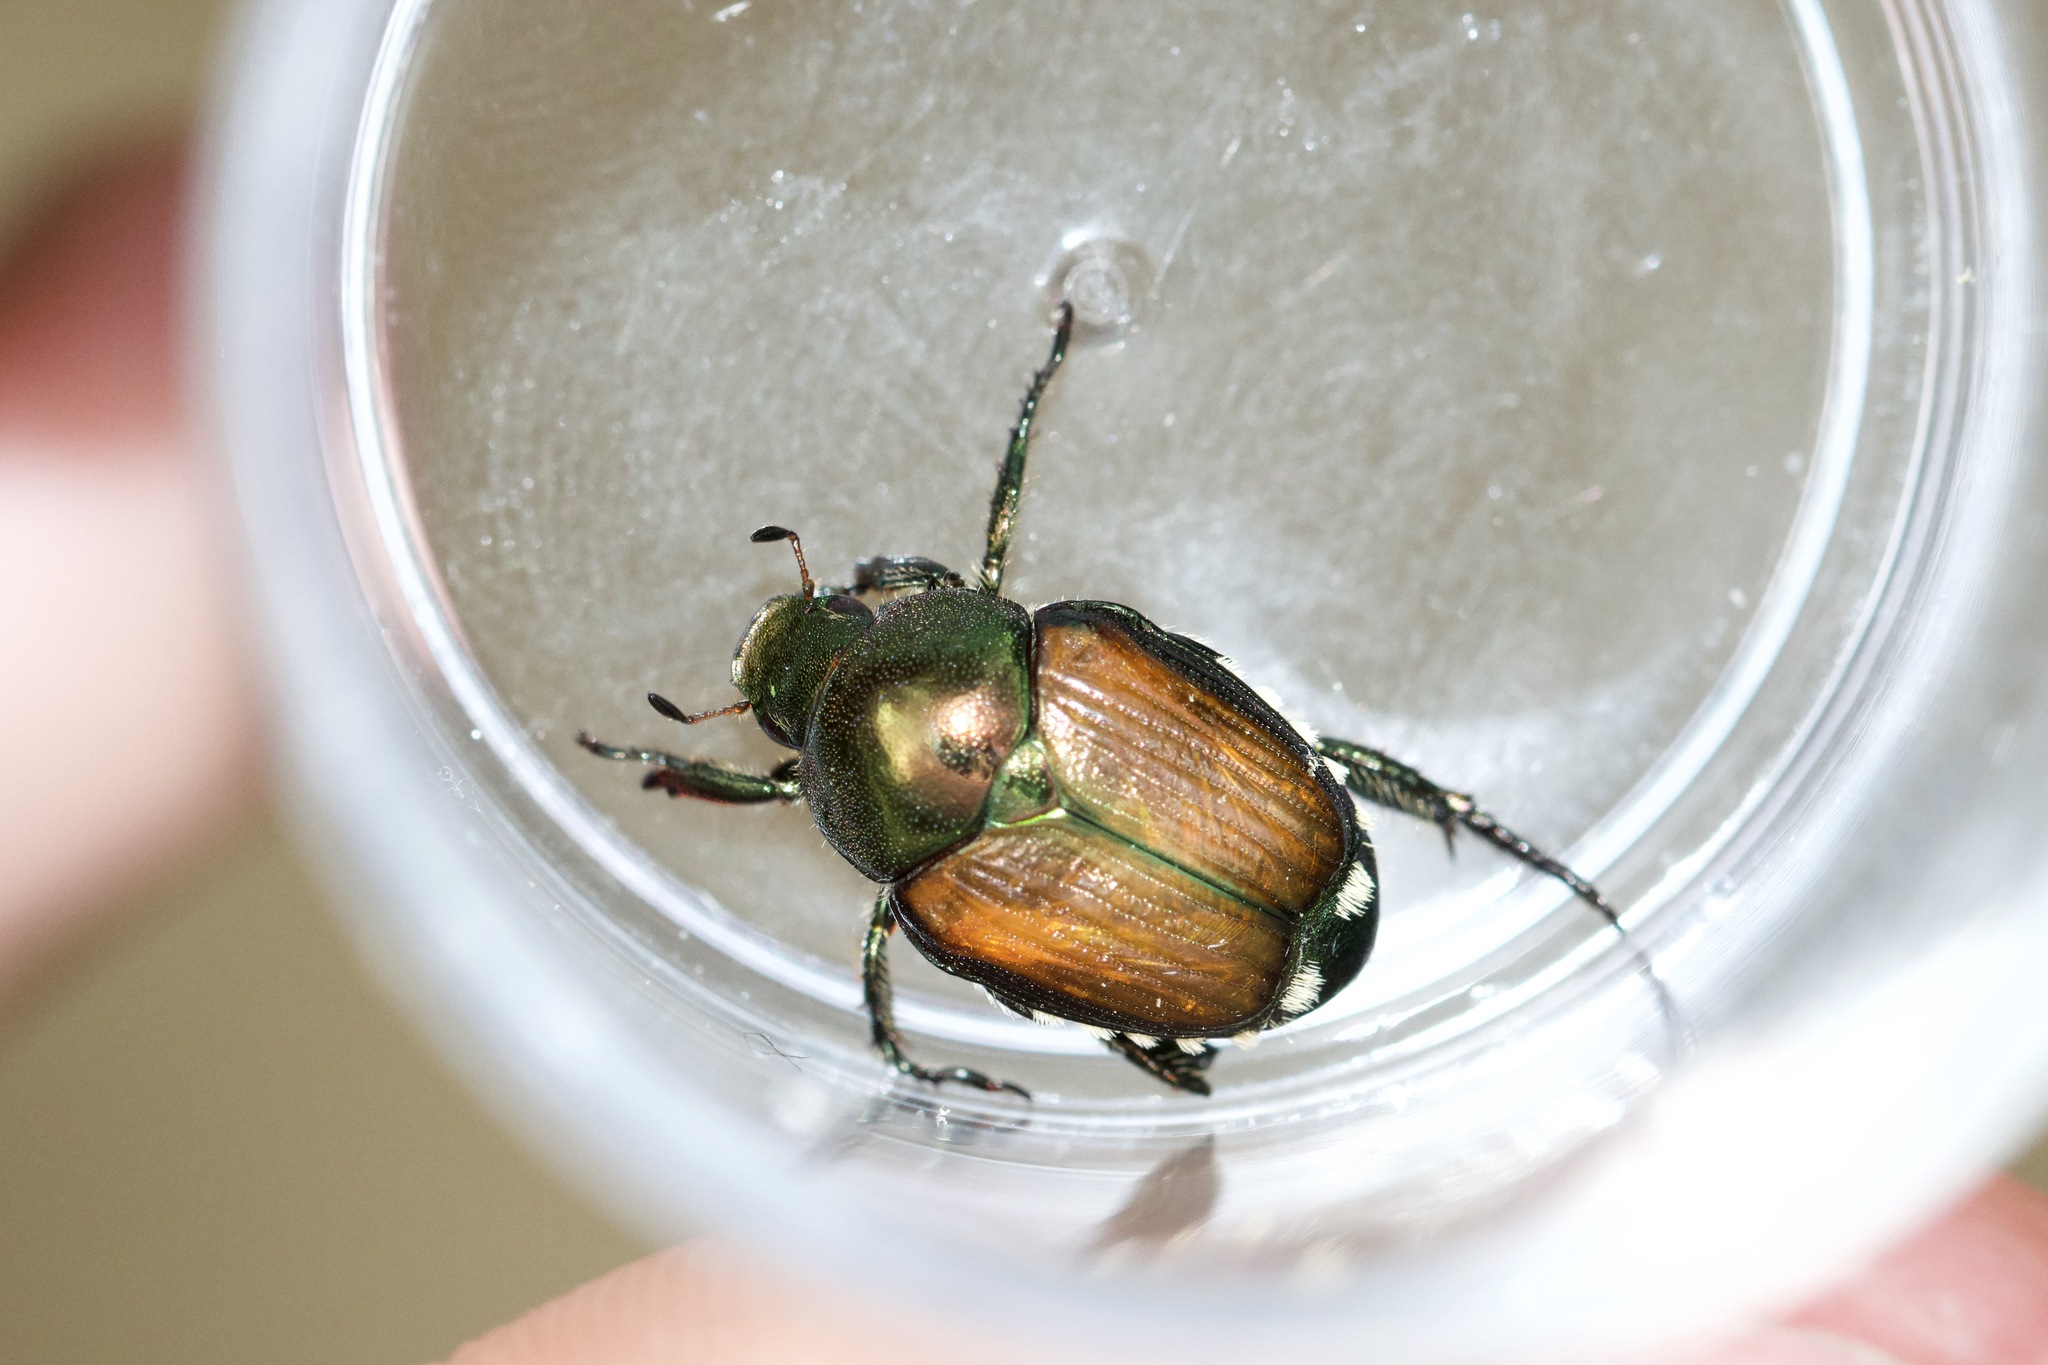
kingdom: Animalia
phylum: Arthropoda
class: Insecta
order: Coleoptera
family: Scarabaeidae
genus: Popillia
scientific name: Popillia japonica
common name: Japanese beetle
